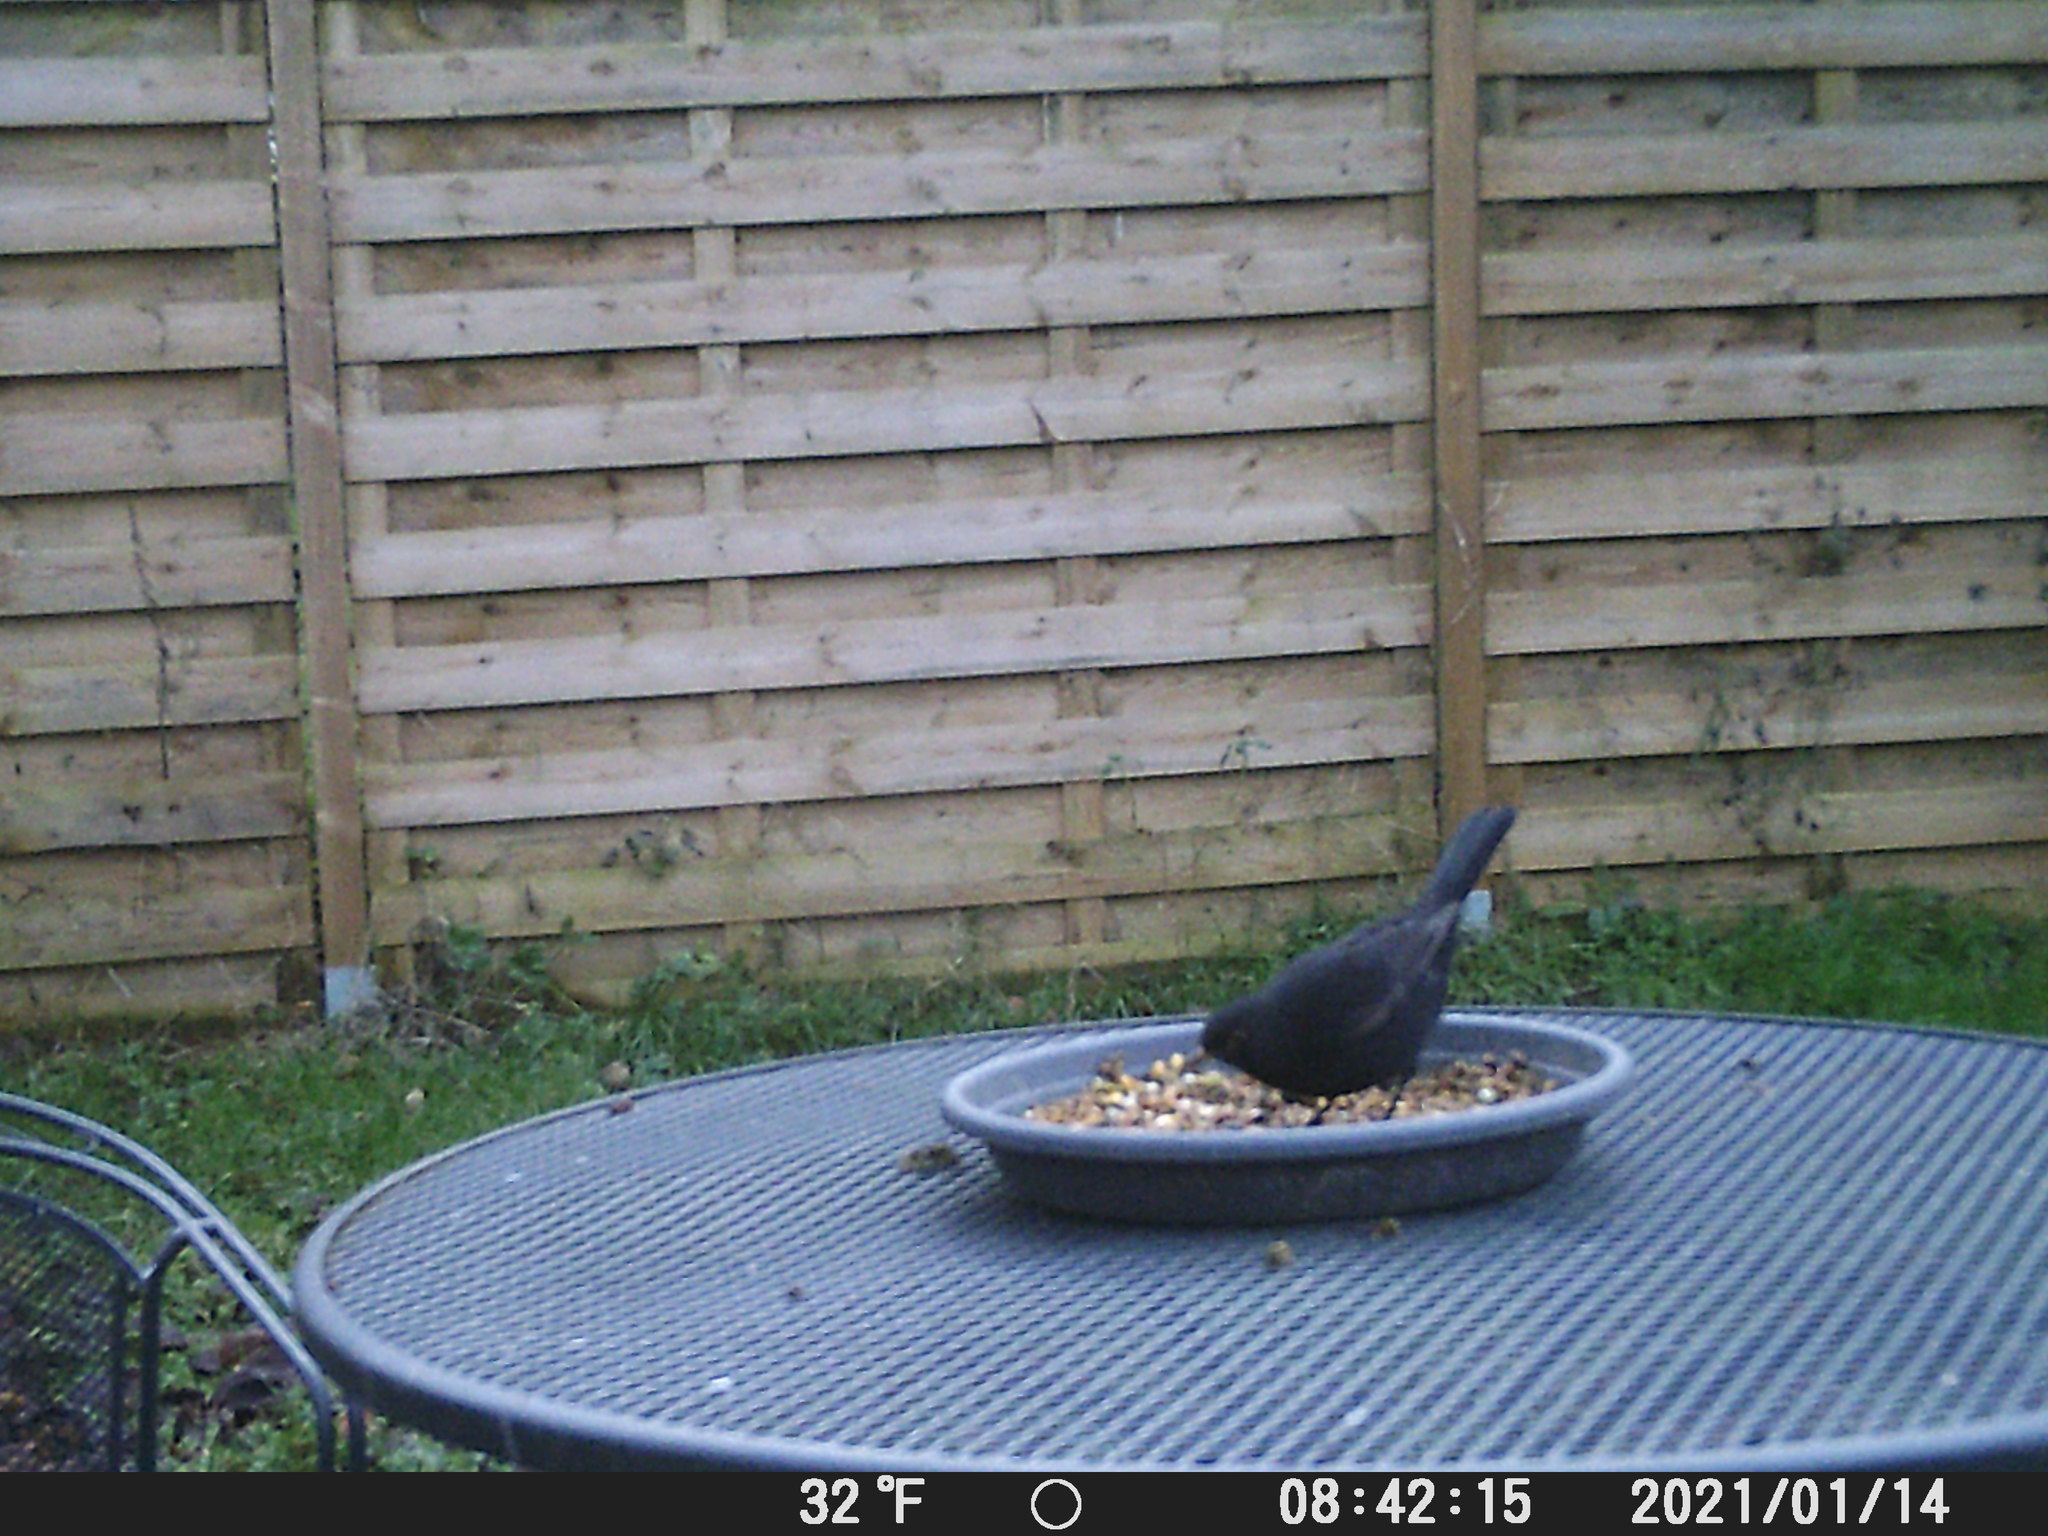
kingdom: Animalia
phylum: Chordata
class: Aves
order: Passeriformes
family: Turdidae
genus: Turdus
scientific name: Turdus merula
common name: Common blackbird
